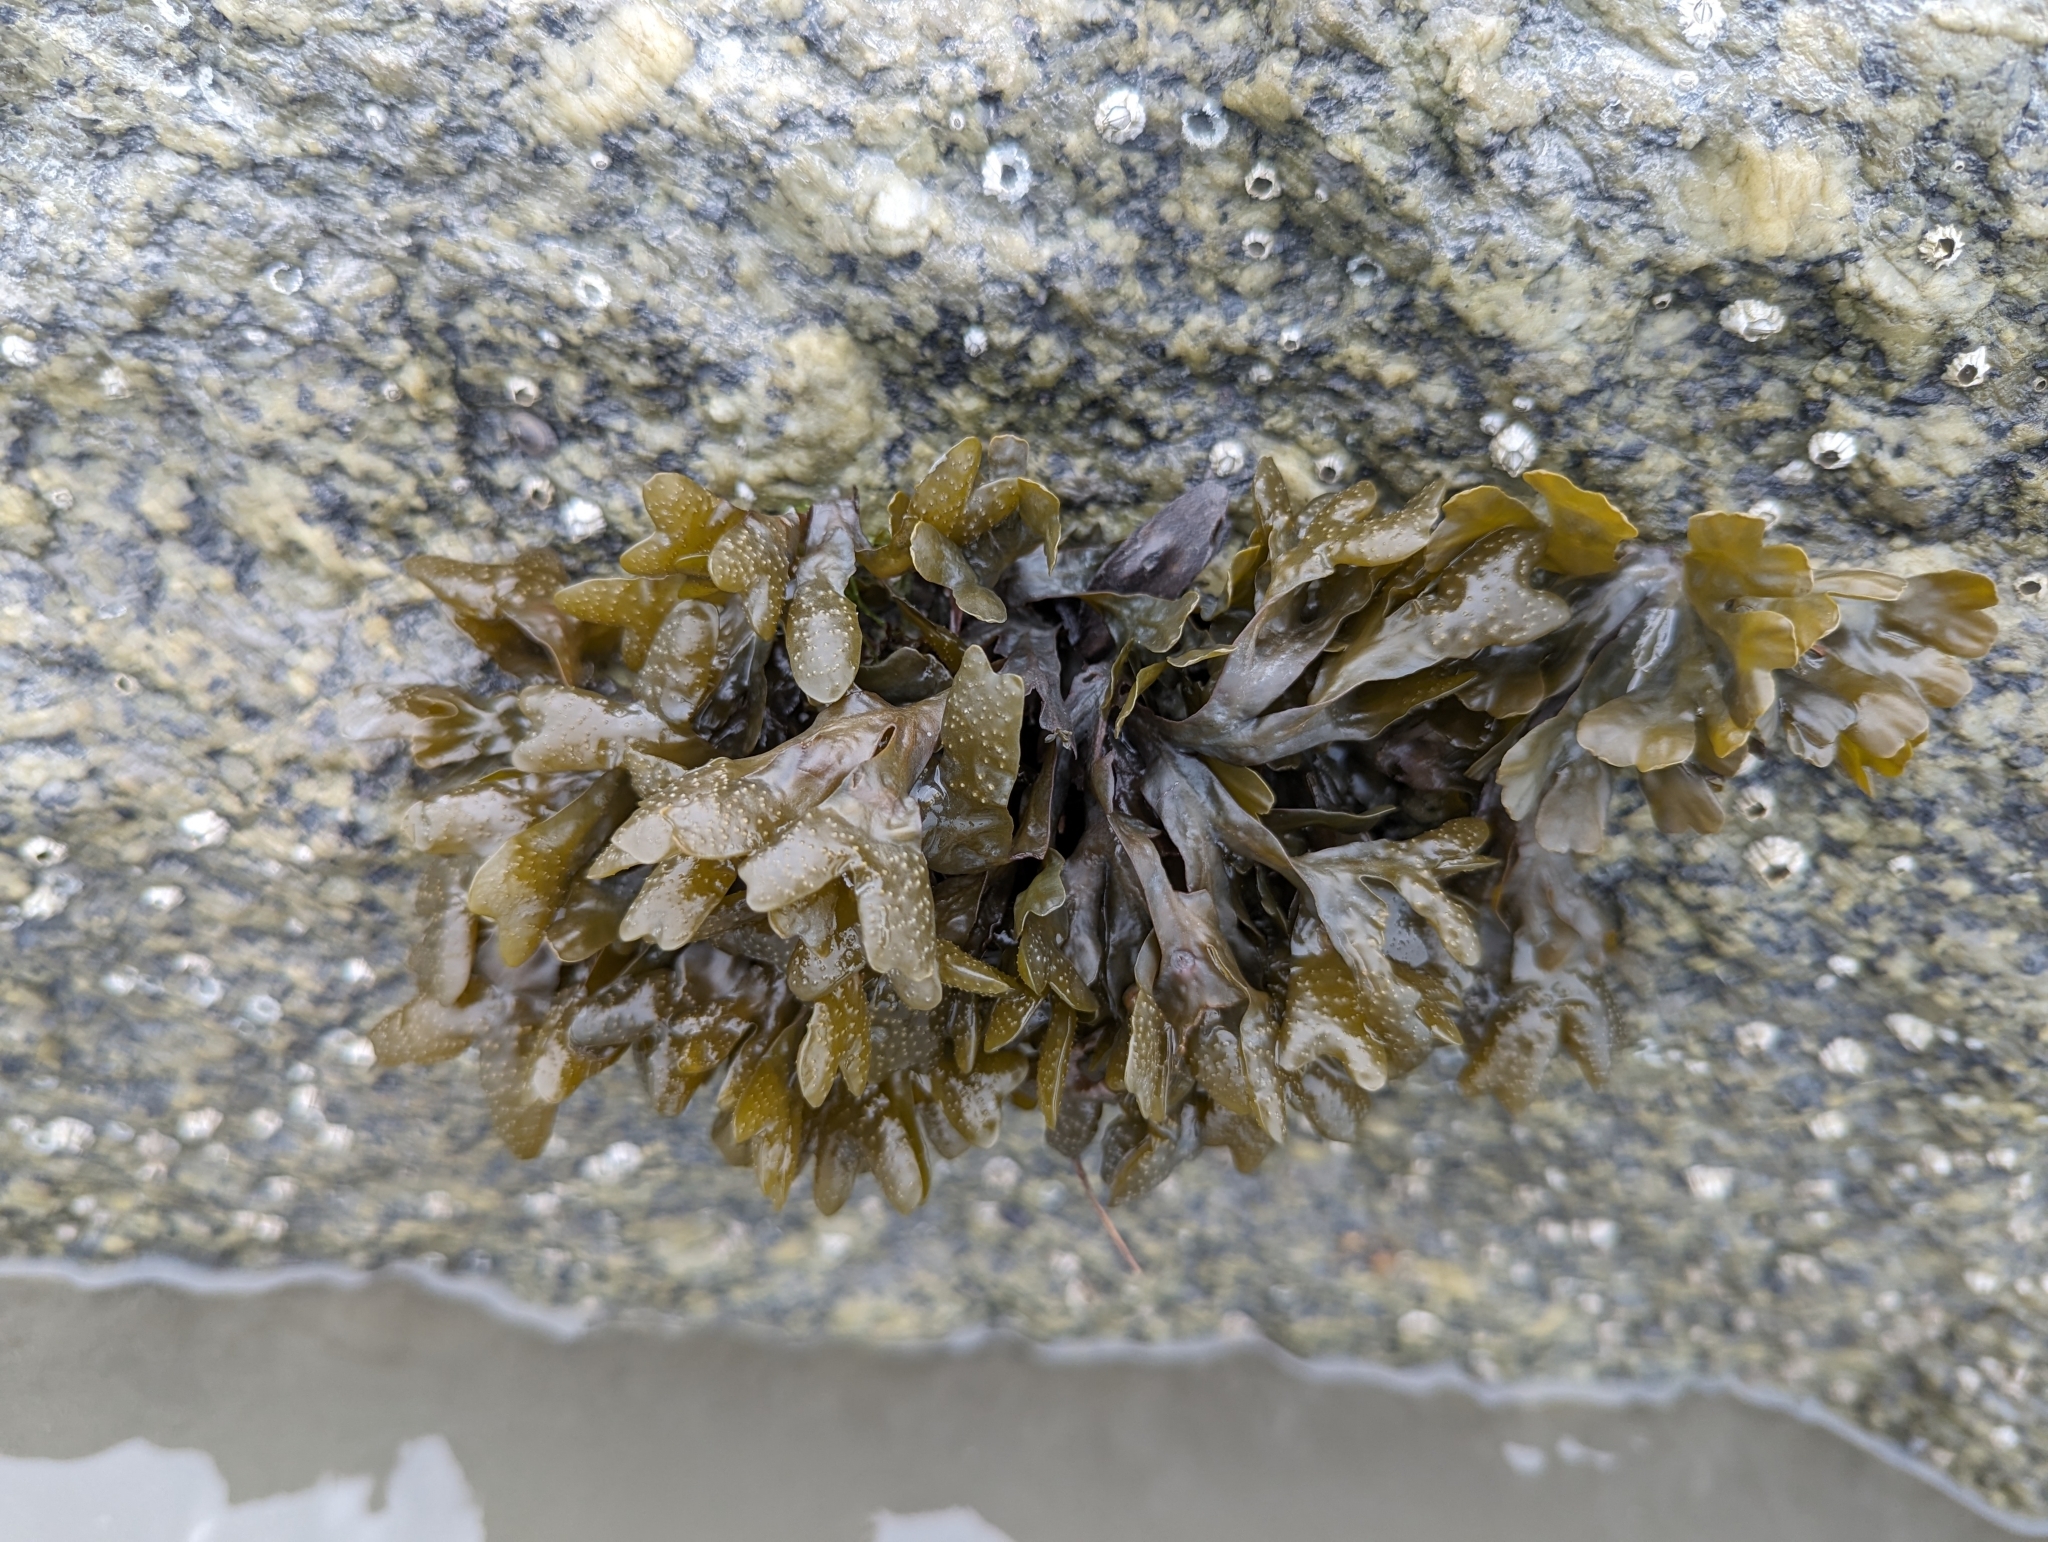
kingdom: Chromista
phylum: Ochrophyta
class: Phaeophyceae
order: Fucales
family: Fucaceae
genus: Fucus
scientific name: Fucus distichus
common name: Rockweed
